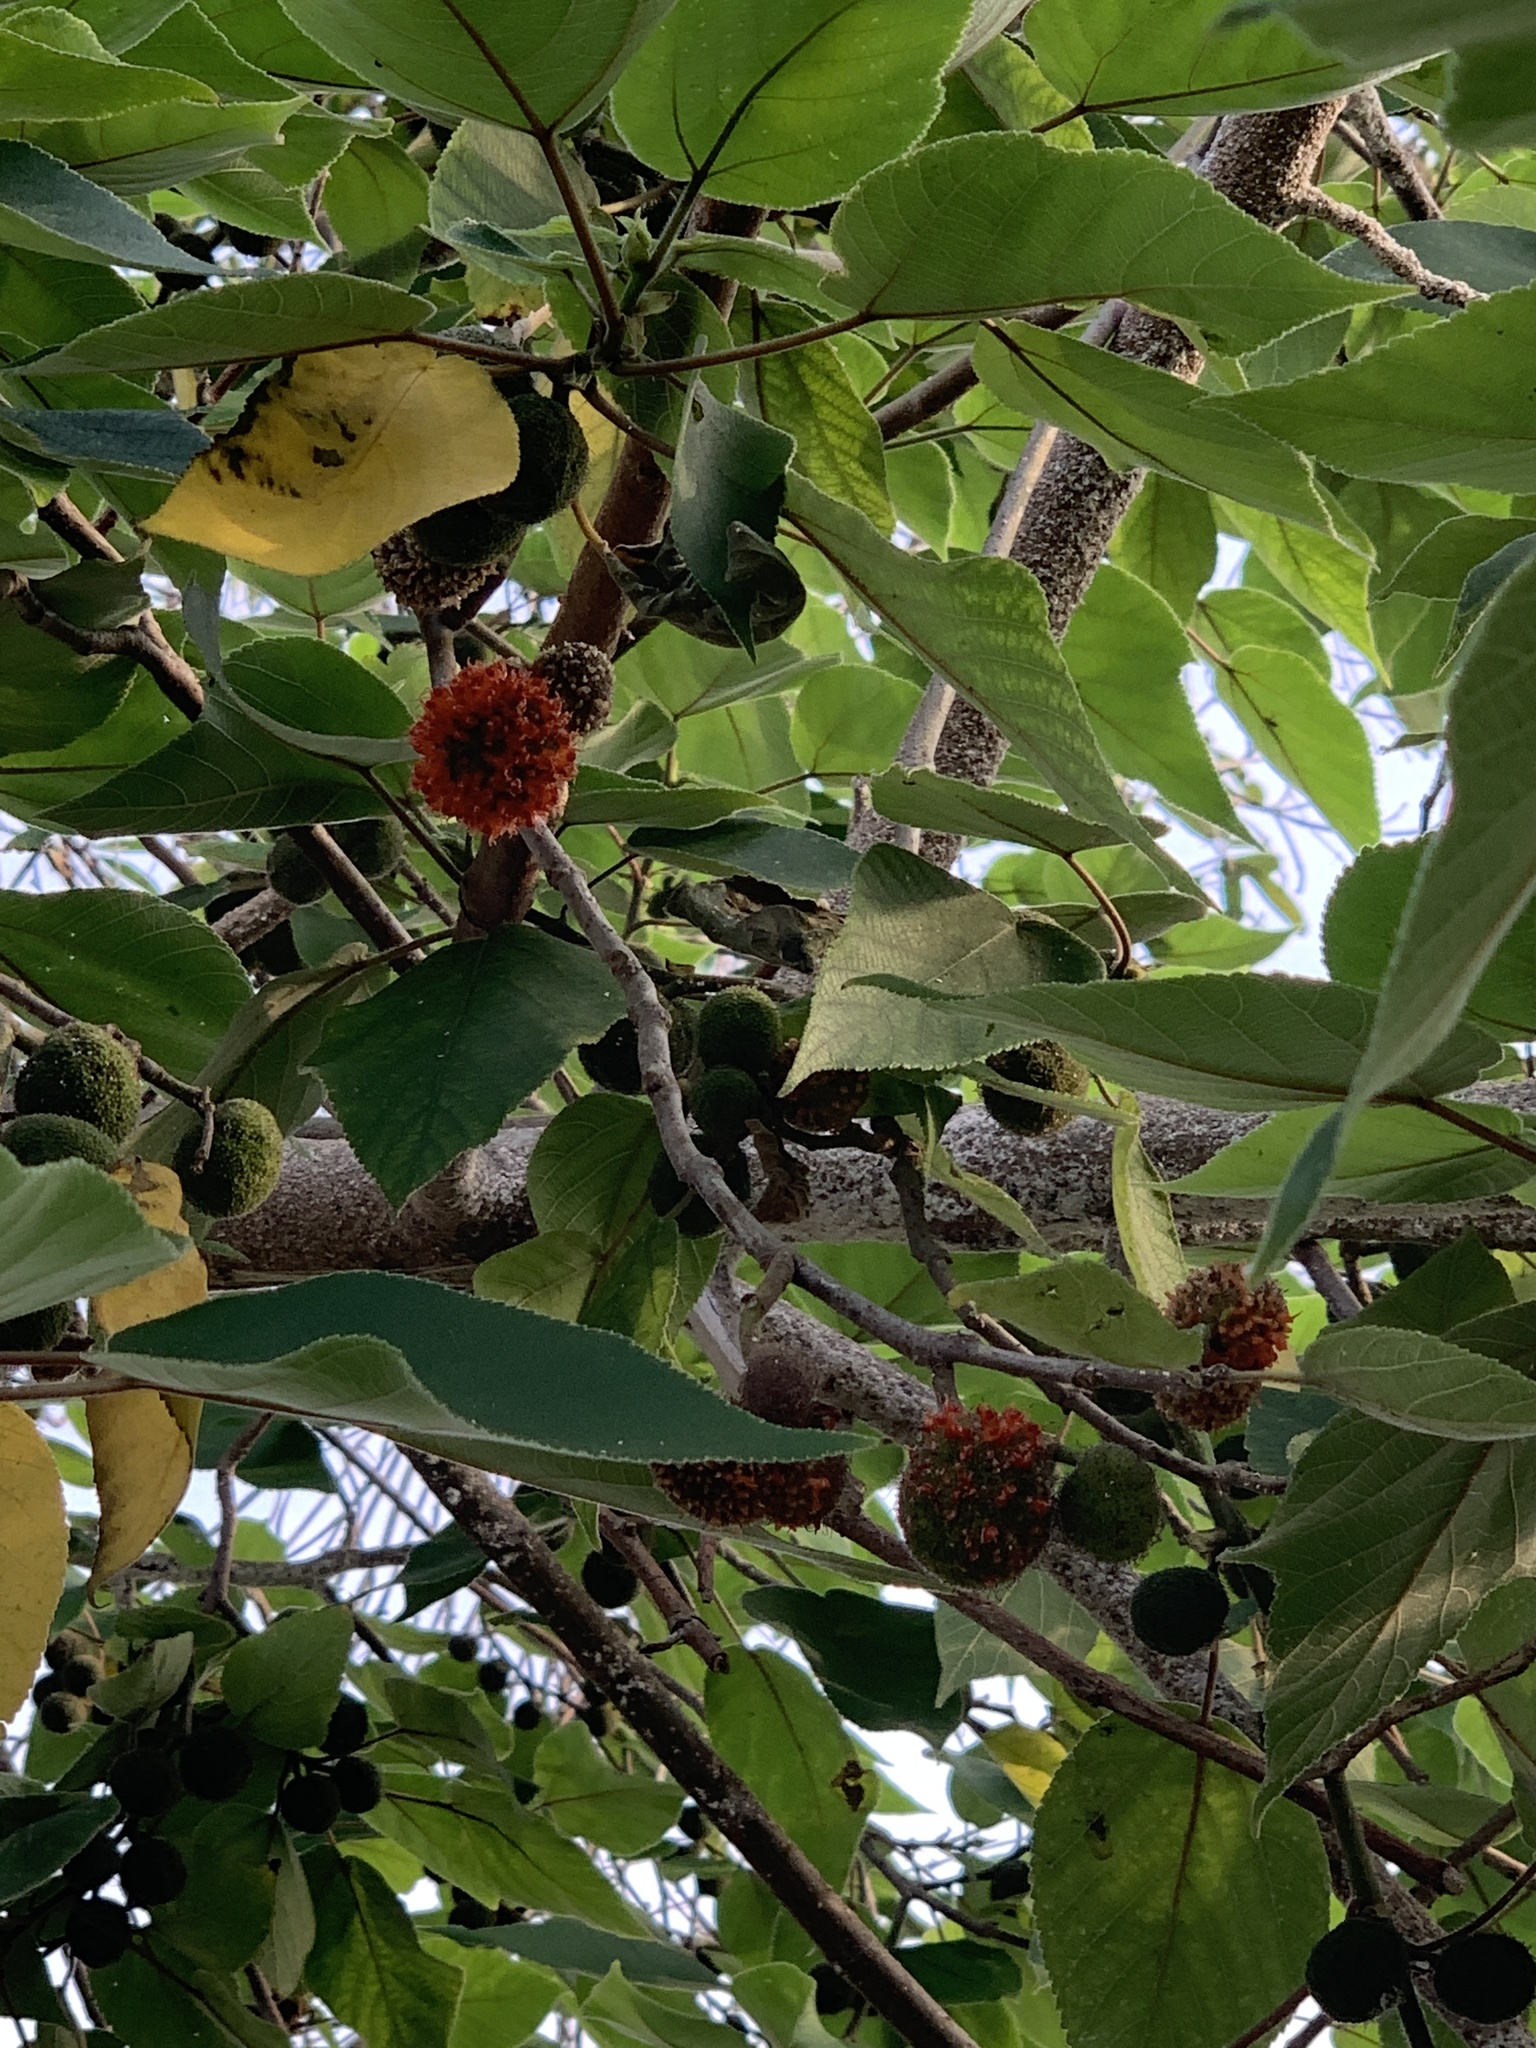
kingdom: Plantae
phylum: Tracheophyta
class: Magnoliopsida
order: Rosales
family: Moraceae
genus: Broussonetia
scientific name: Broussonetia papyrifera
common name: Paper mulberry
